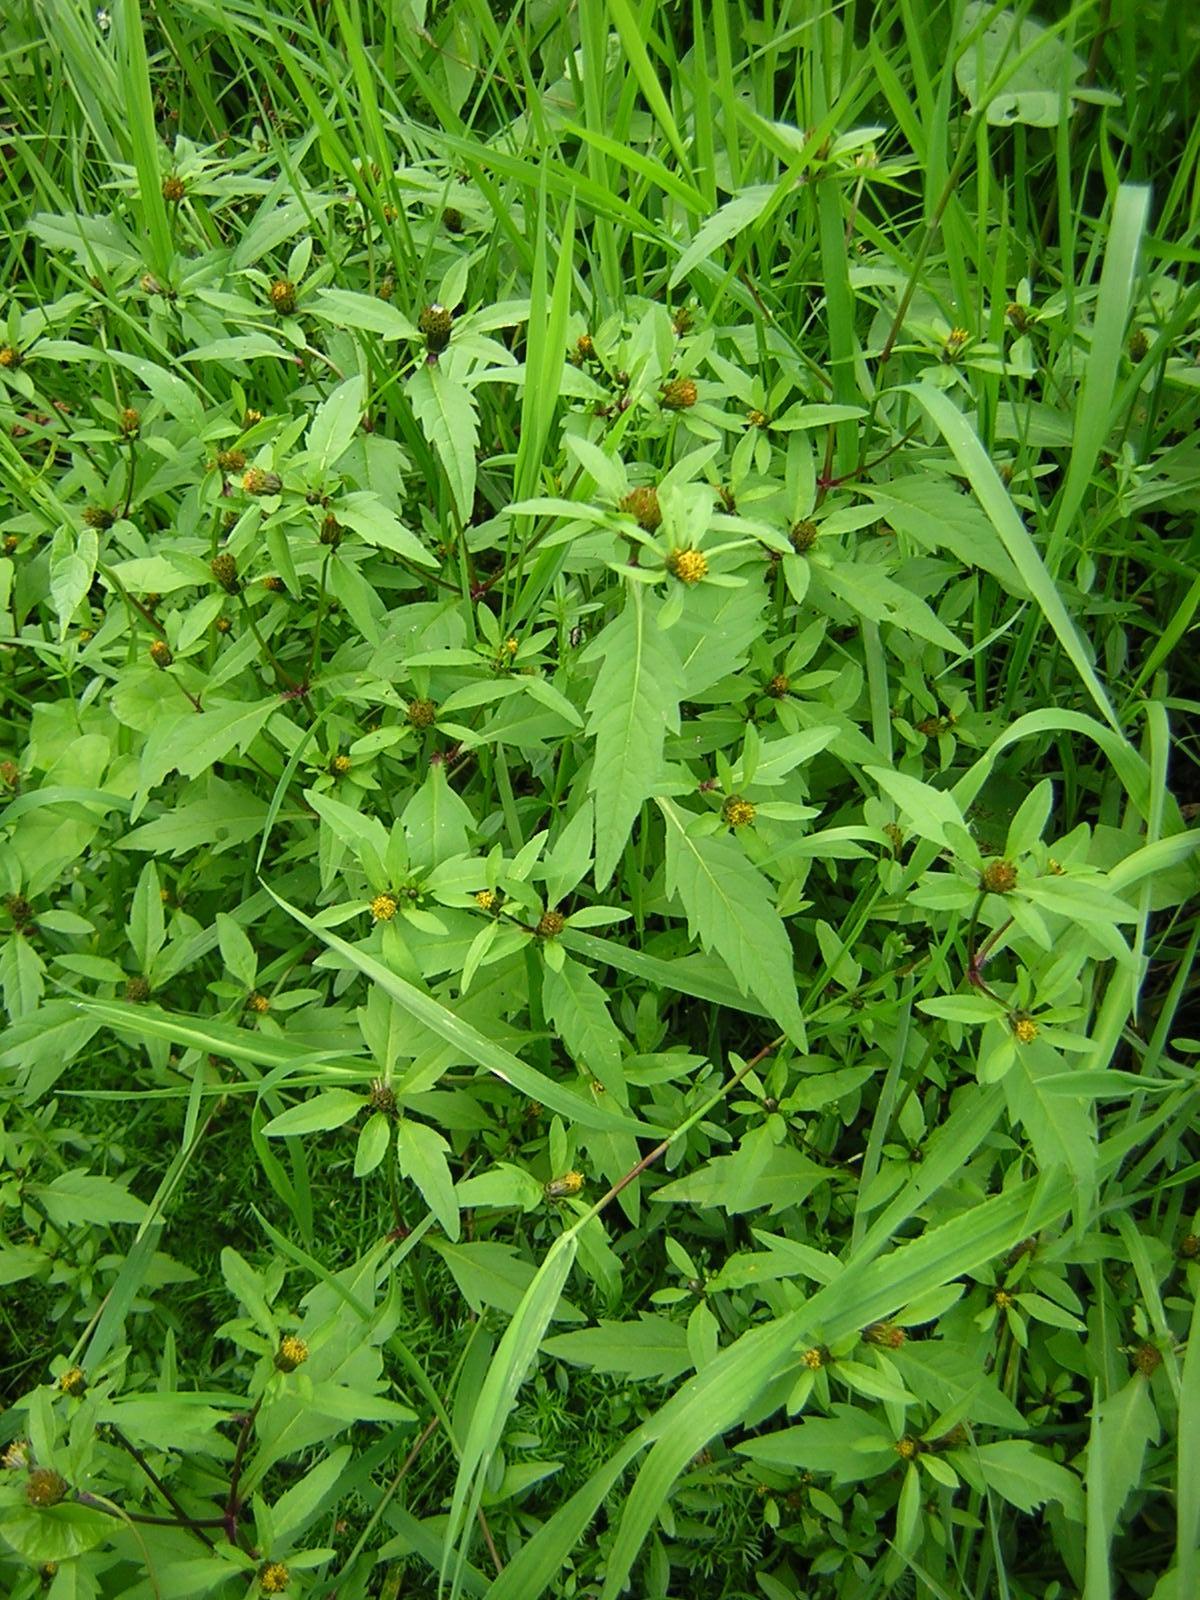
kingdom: Plantae
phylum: Tracheophyta
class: Magnoliopsida
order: Asterales
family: Asteraceae
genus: Bidens
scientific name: Bidens connata
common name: London bur-marigold
